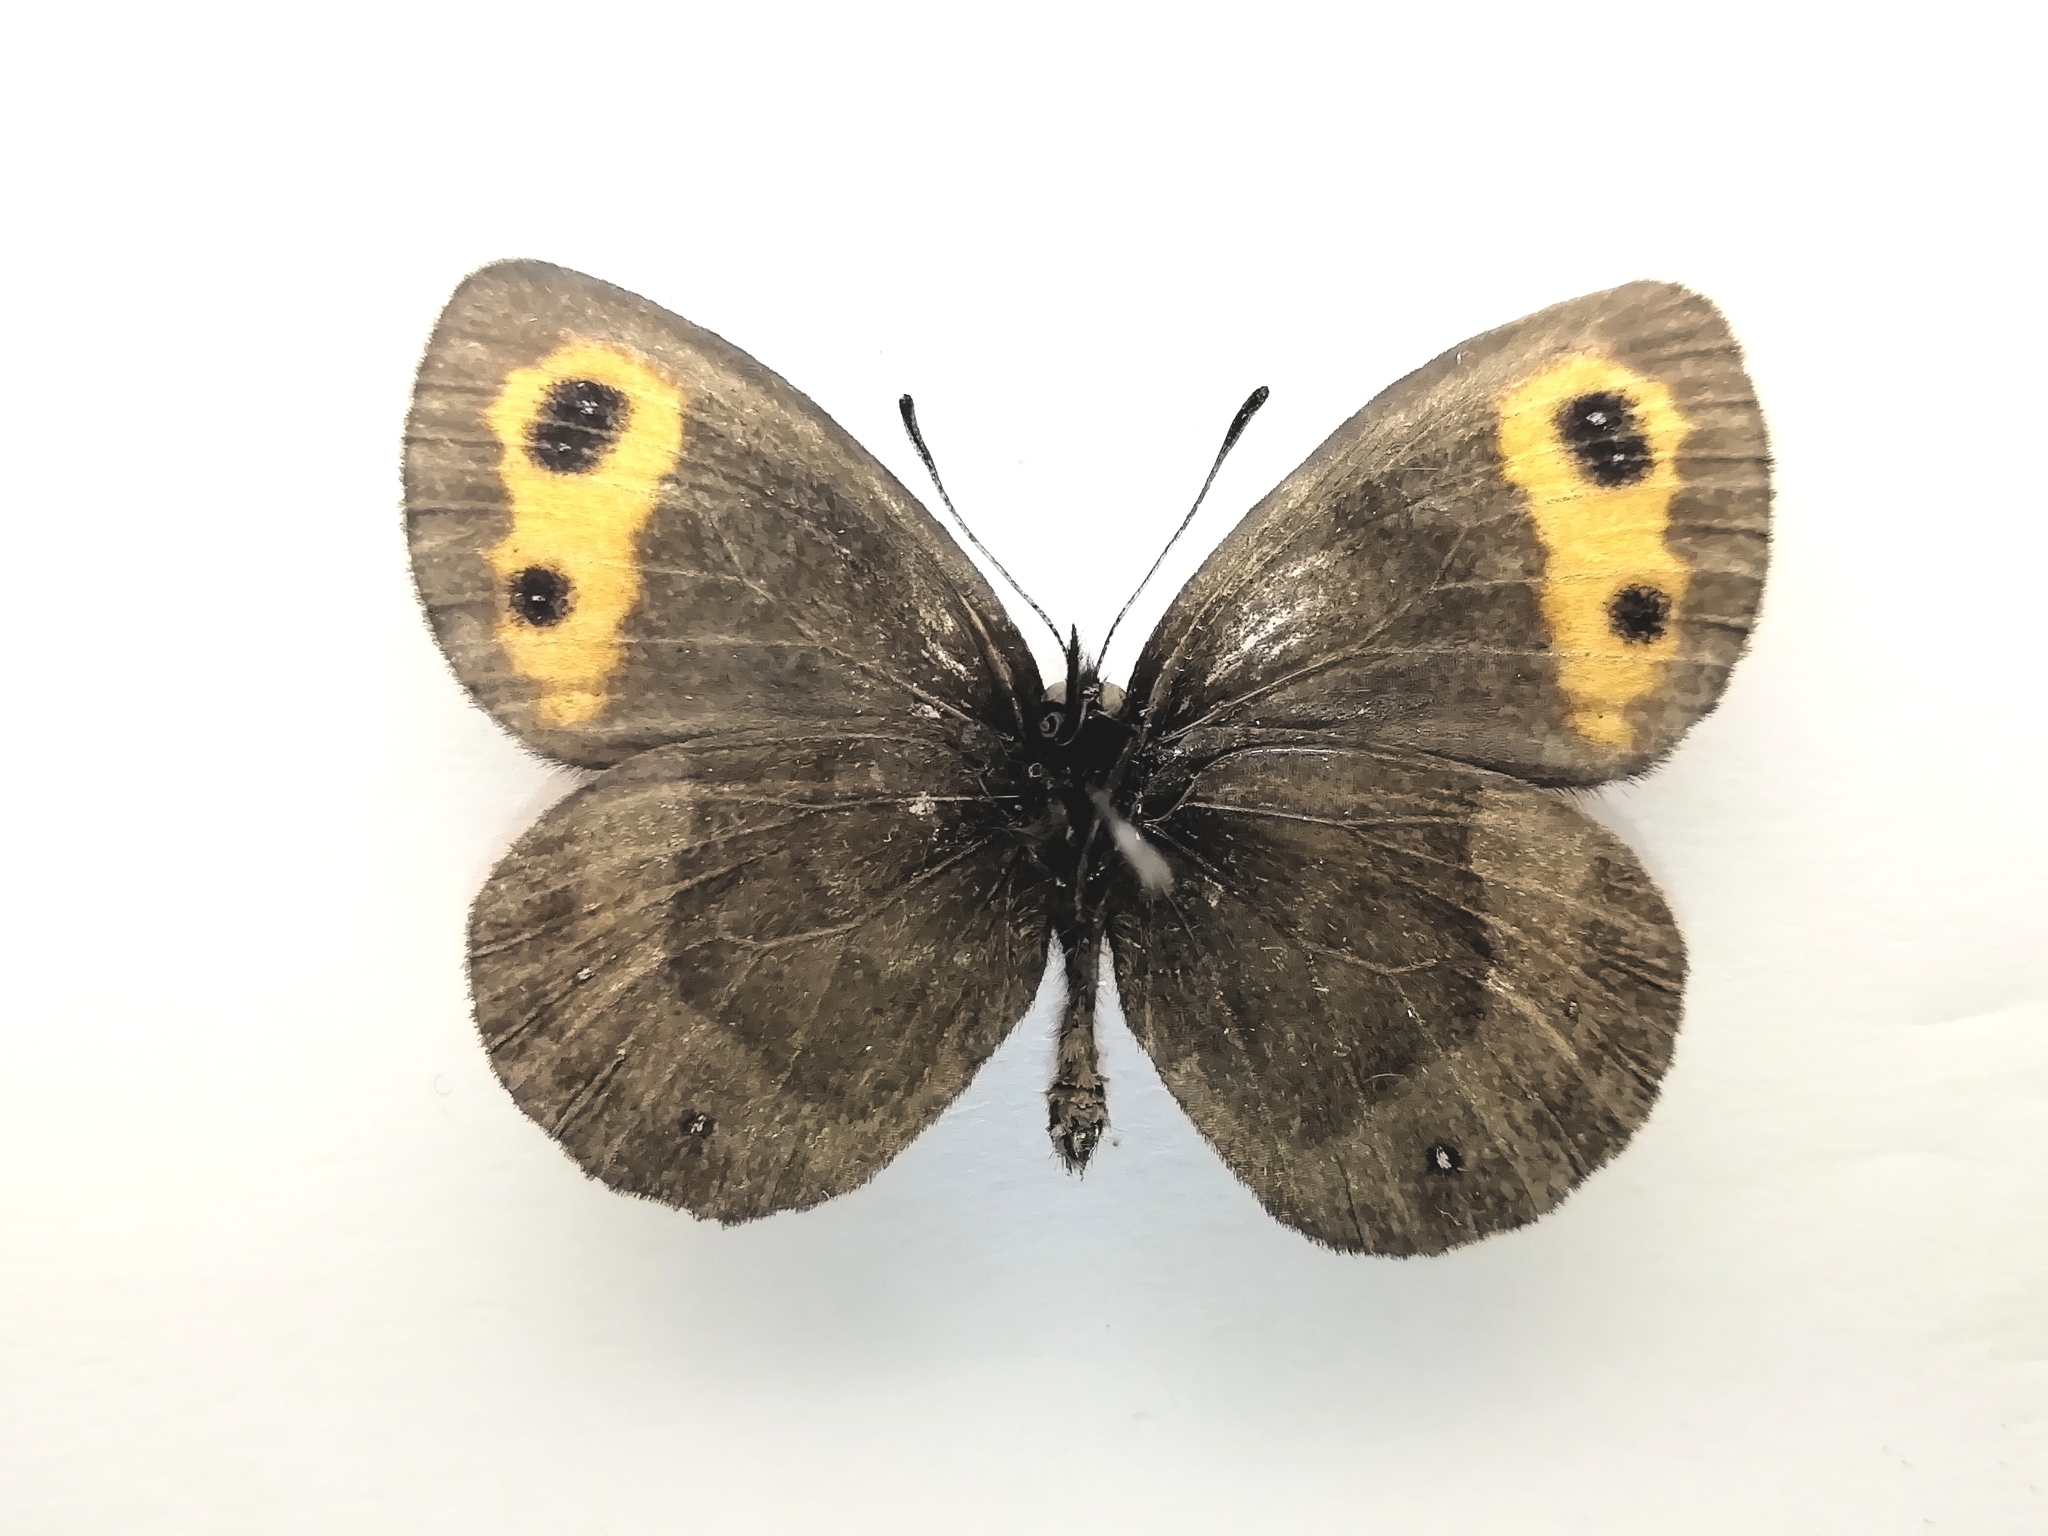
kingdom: Animalia
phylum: Arthropoda
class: Insecta
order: Lepidoptera
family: Nymphalidae
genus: Erebia
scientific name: Erebia neriene
